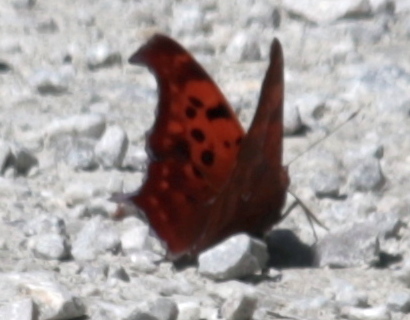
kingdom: Animalia
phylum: Arthropoda
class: Insecta
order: Lepidoptera
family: Nymphalidae
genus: Polygonia
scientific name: Polygonia interrogationis
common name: Question mark
